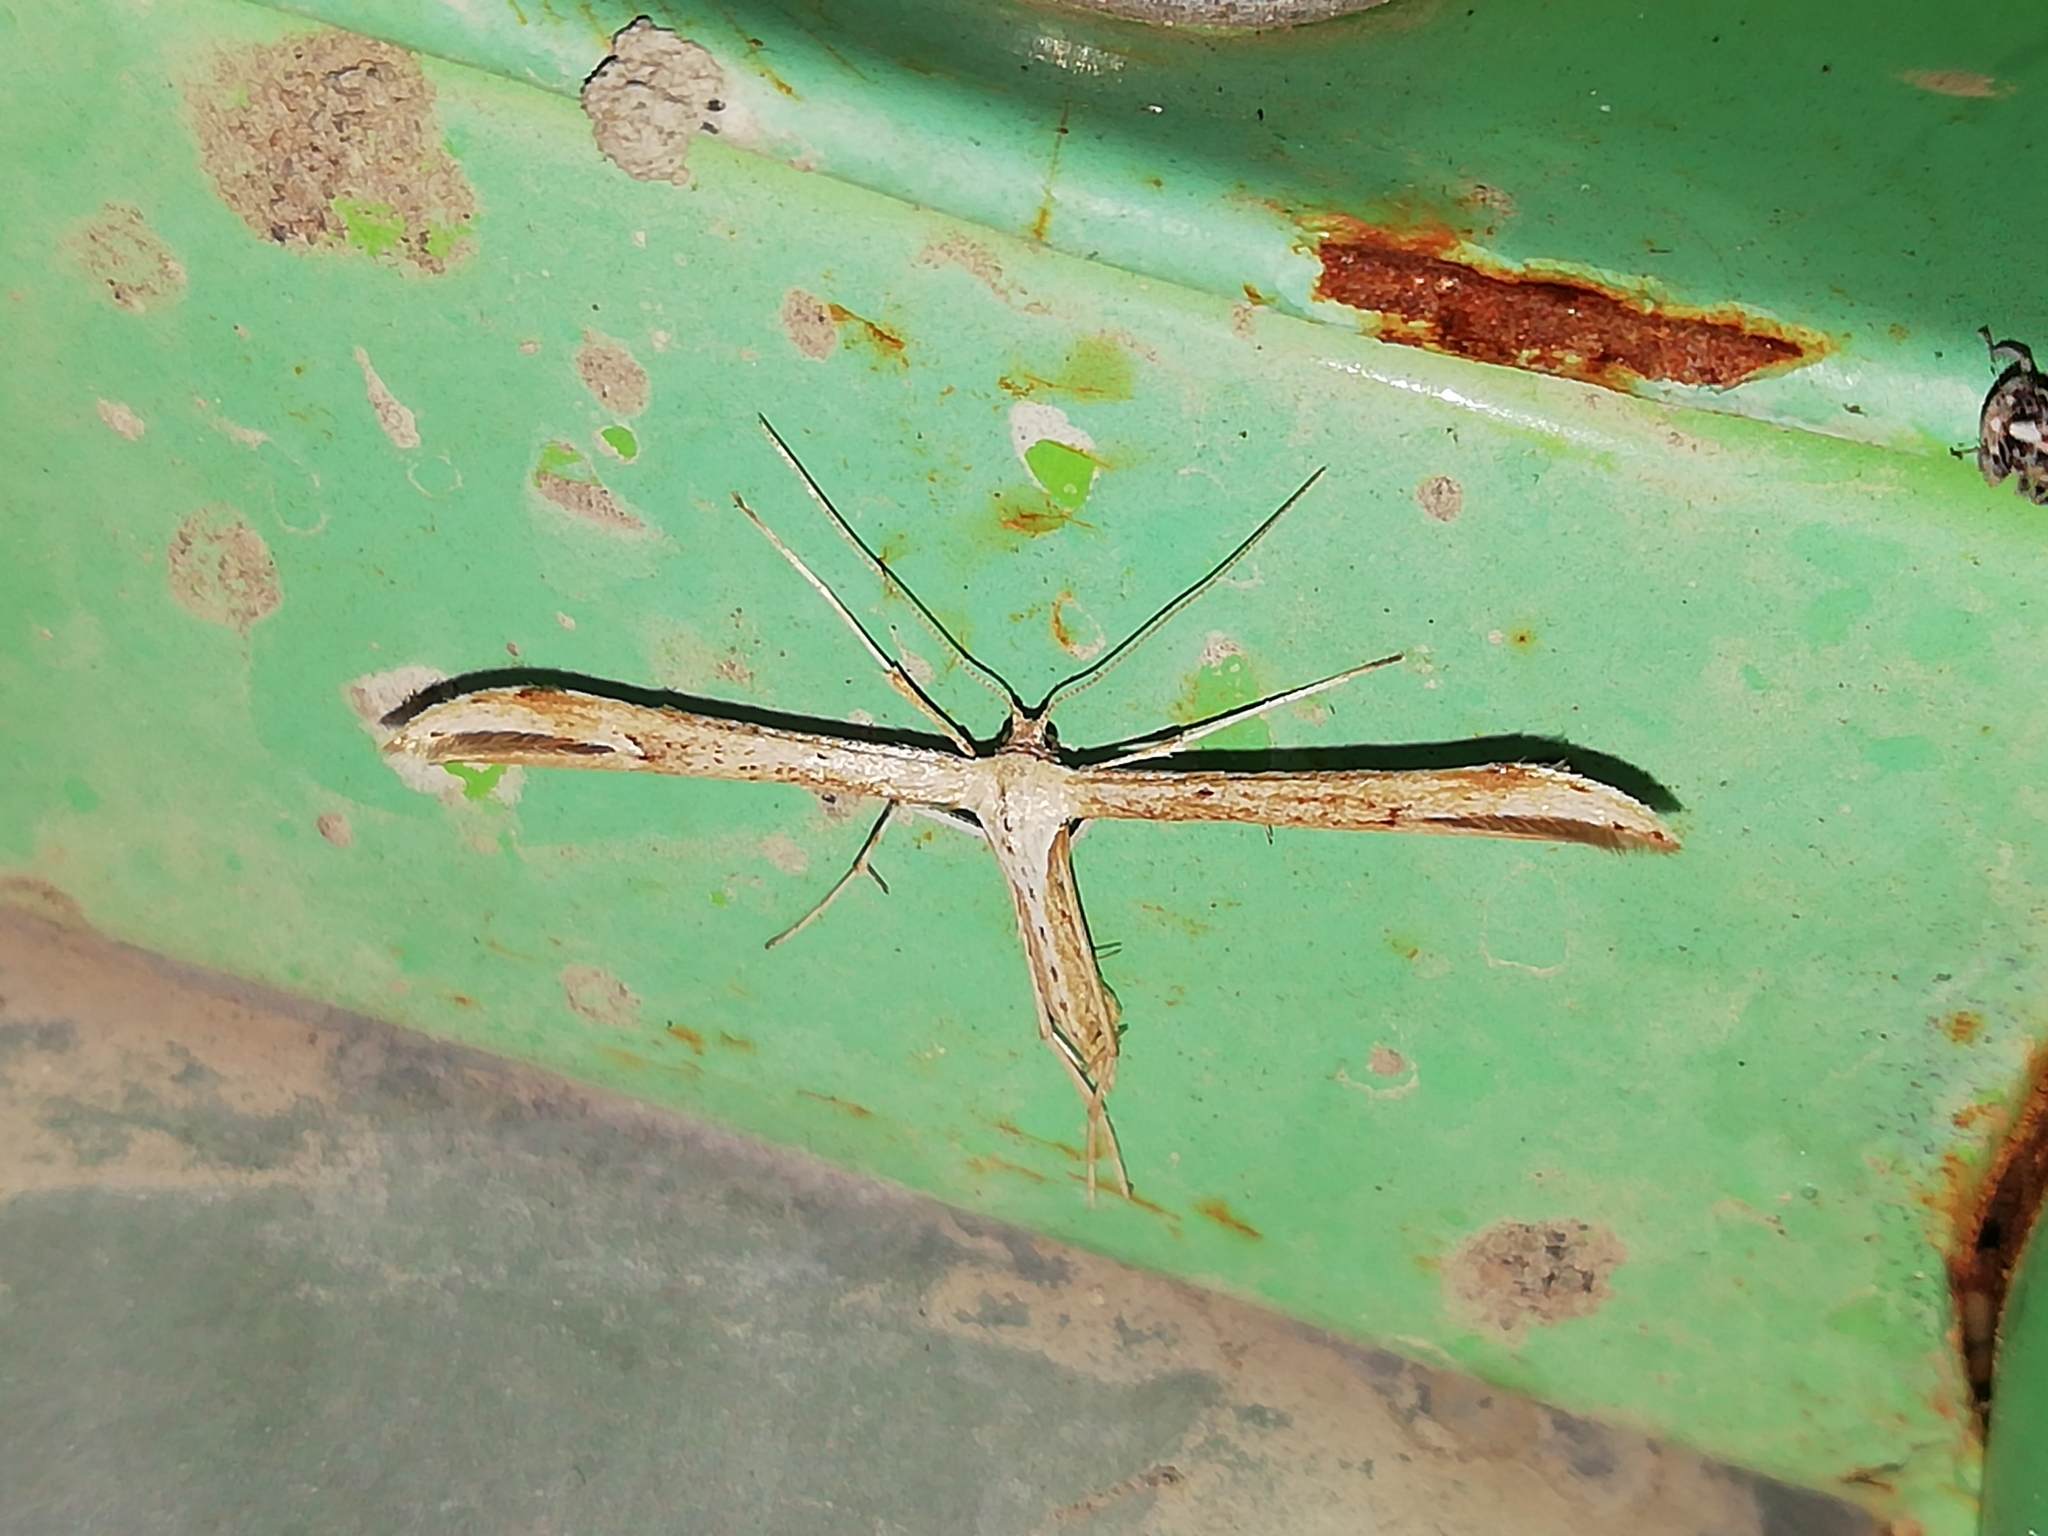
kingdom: Animalia
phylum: Arthropoda
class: Insecta
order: Lepidoptera
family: Pterophoridae
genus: Emmelina
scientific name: Emmelina monodactyla
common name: Common plume
